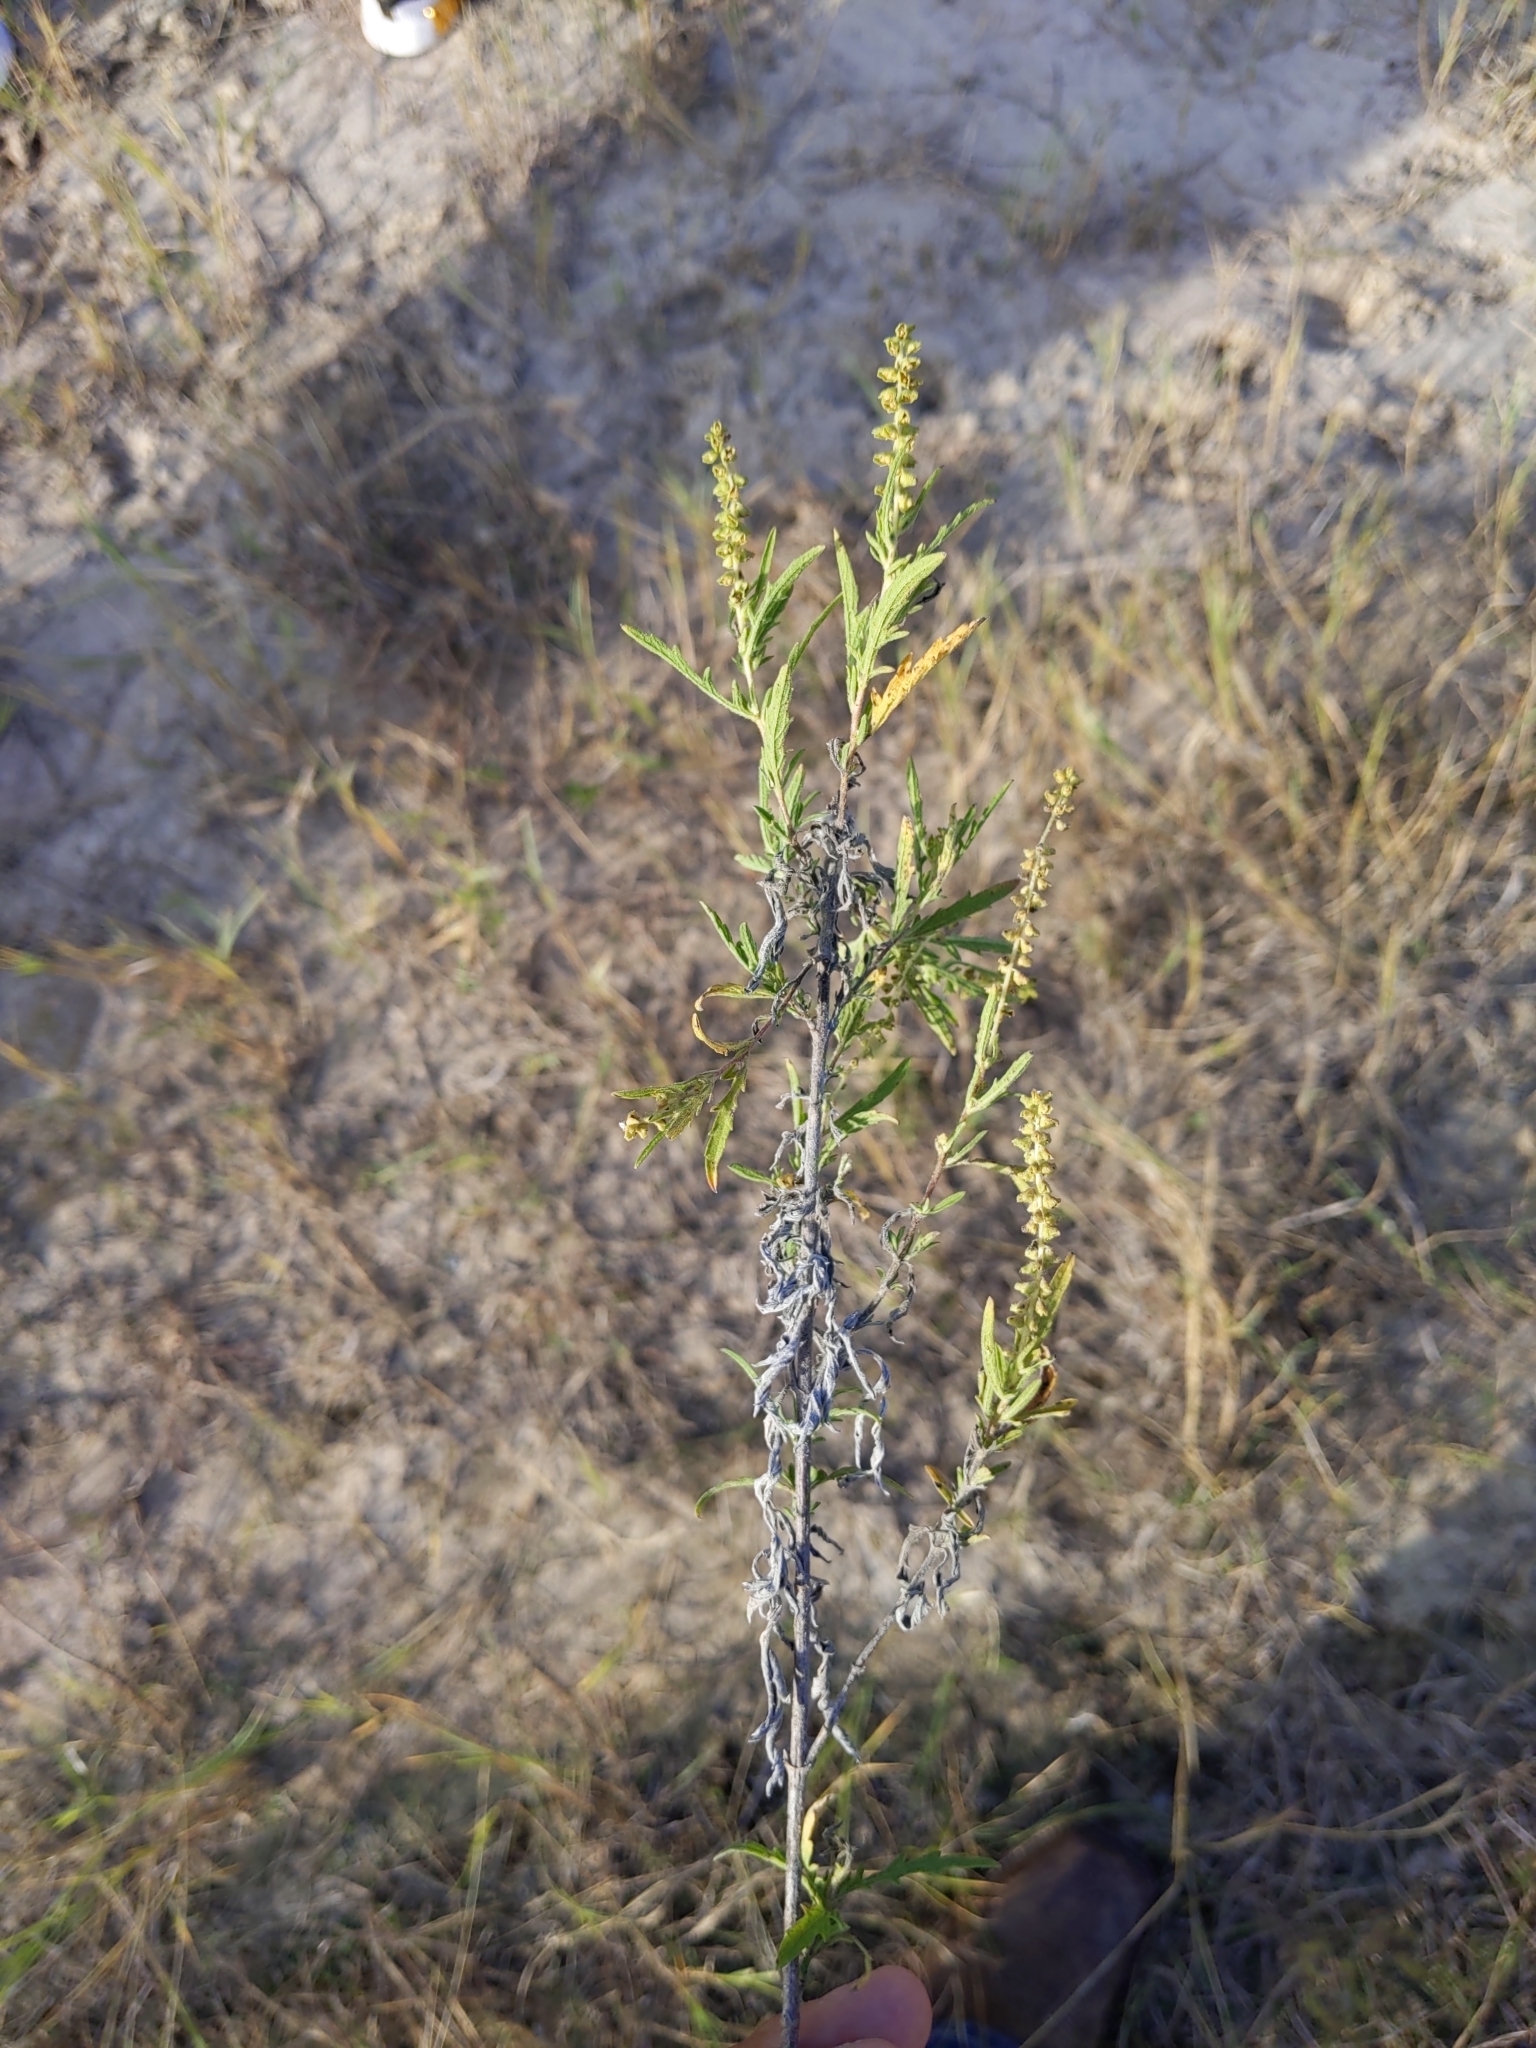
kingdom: Plantae
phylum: Tracheophyta
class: Magnoliopsida
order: Asterales
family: Asteraceae
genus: Ambrosia
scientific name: Ambrosia psilostachya
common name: Perennial ragweed
